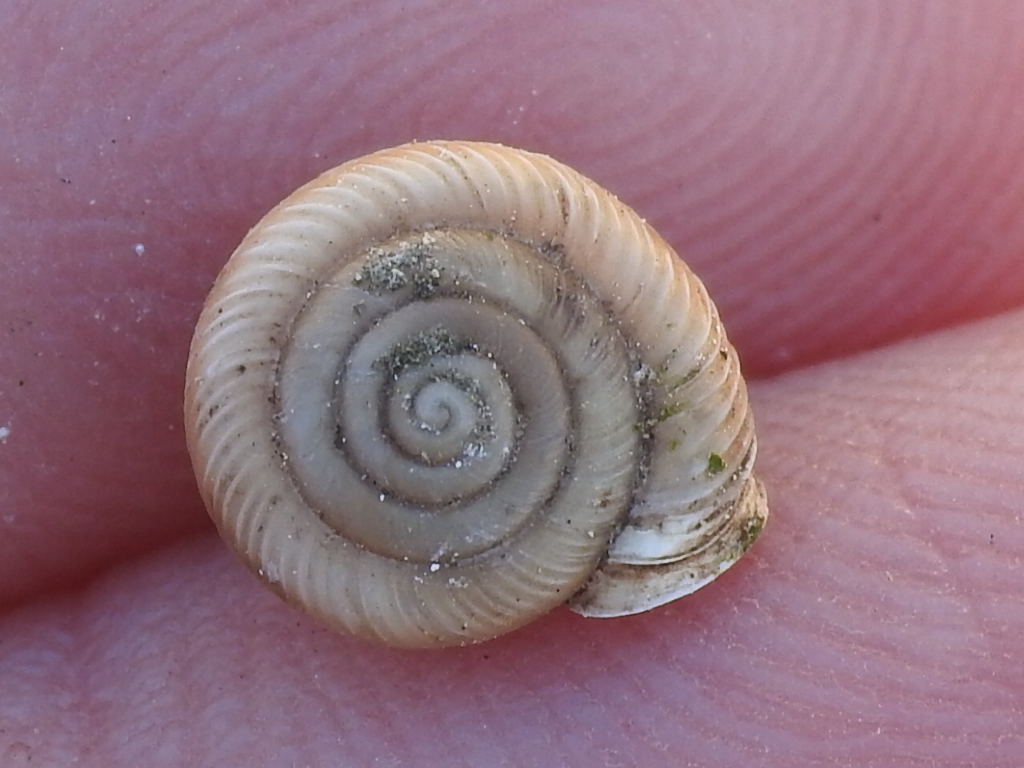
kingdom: Animalia
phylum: Mollusca
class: Gastropoda
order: Stylommatophora
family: Polygyridae
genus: Linisa
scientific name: Linisa texasiana
